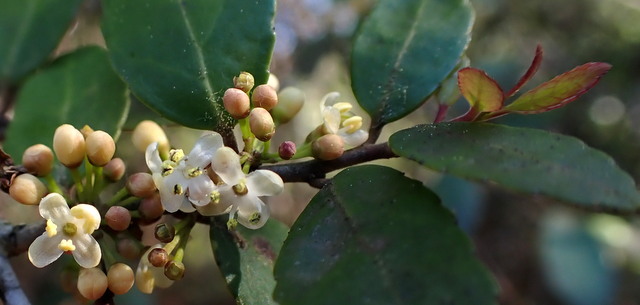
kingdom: Plantae
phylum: Tracheophyta
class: Magnoliopsida
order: Aquifoliales
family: Aquifoliaceae
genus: Ilex
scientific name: Ilex vomitoria
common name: Yaupon holly
